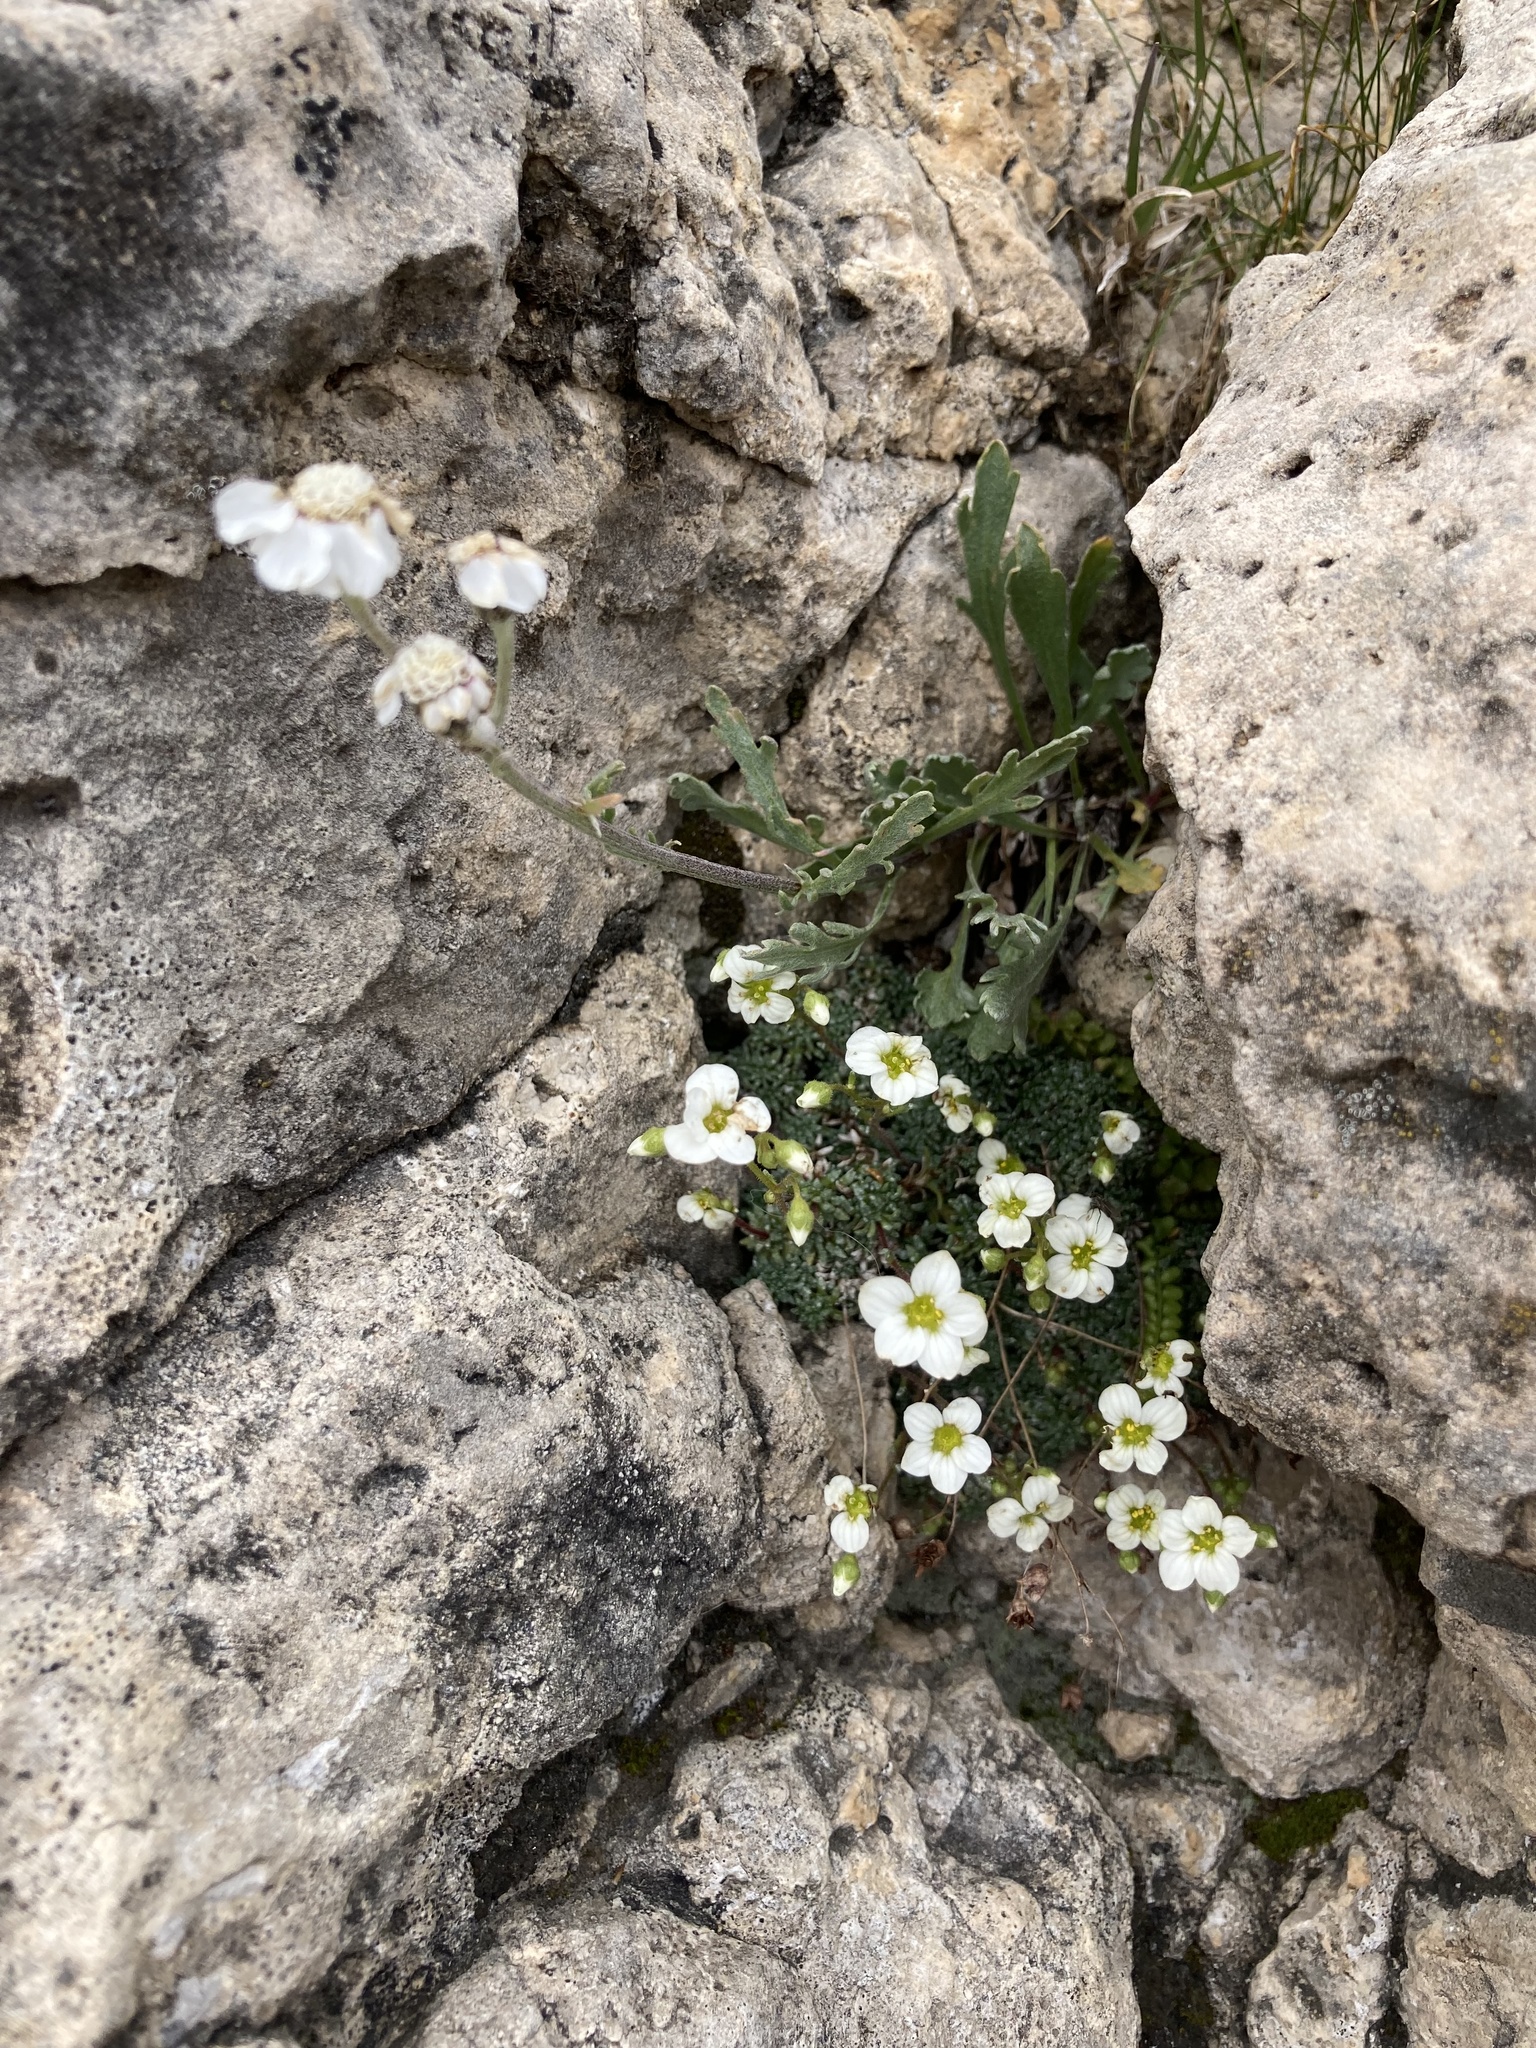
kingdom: Plantae
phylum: Tracheophyta
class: Magnoliopsida
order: Saxifragales
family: Saxifragaceae
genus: Saxifraga
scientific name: Saxifraga caesia
